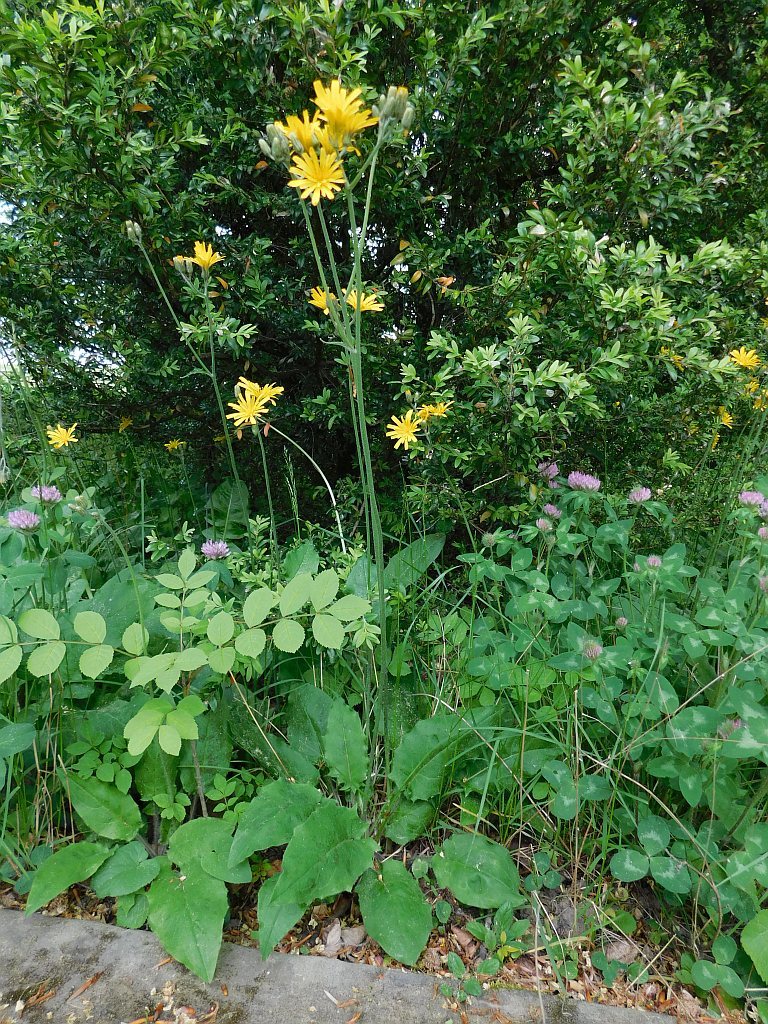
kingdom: Plantae
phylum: Tracheophyta
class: Magnoliopsida
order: Asterales
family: Asteraceae
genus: Hieracium
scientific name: Hieracium murorum
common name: Wall hawkweed
